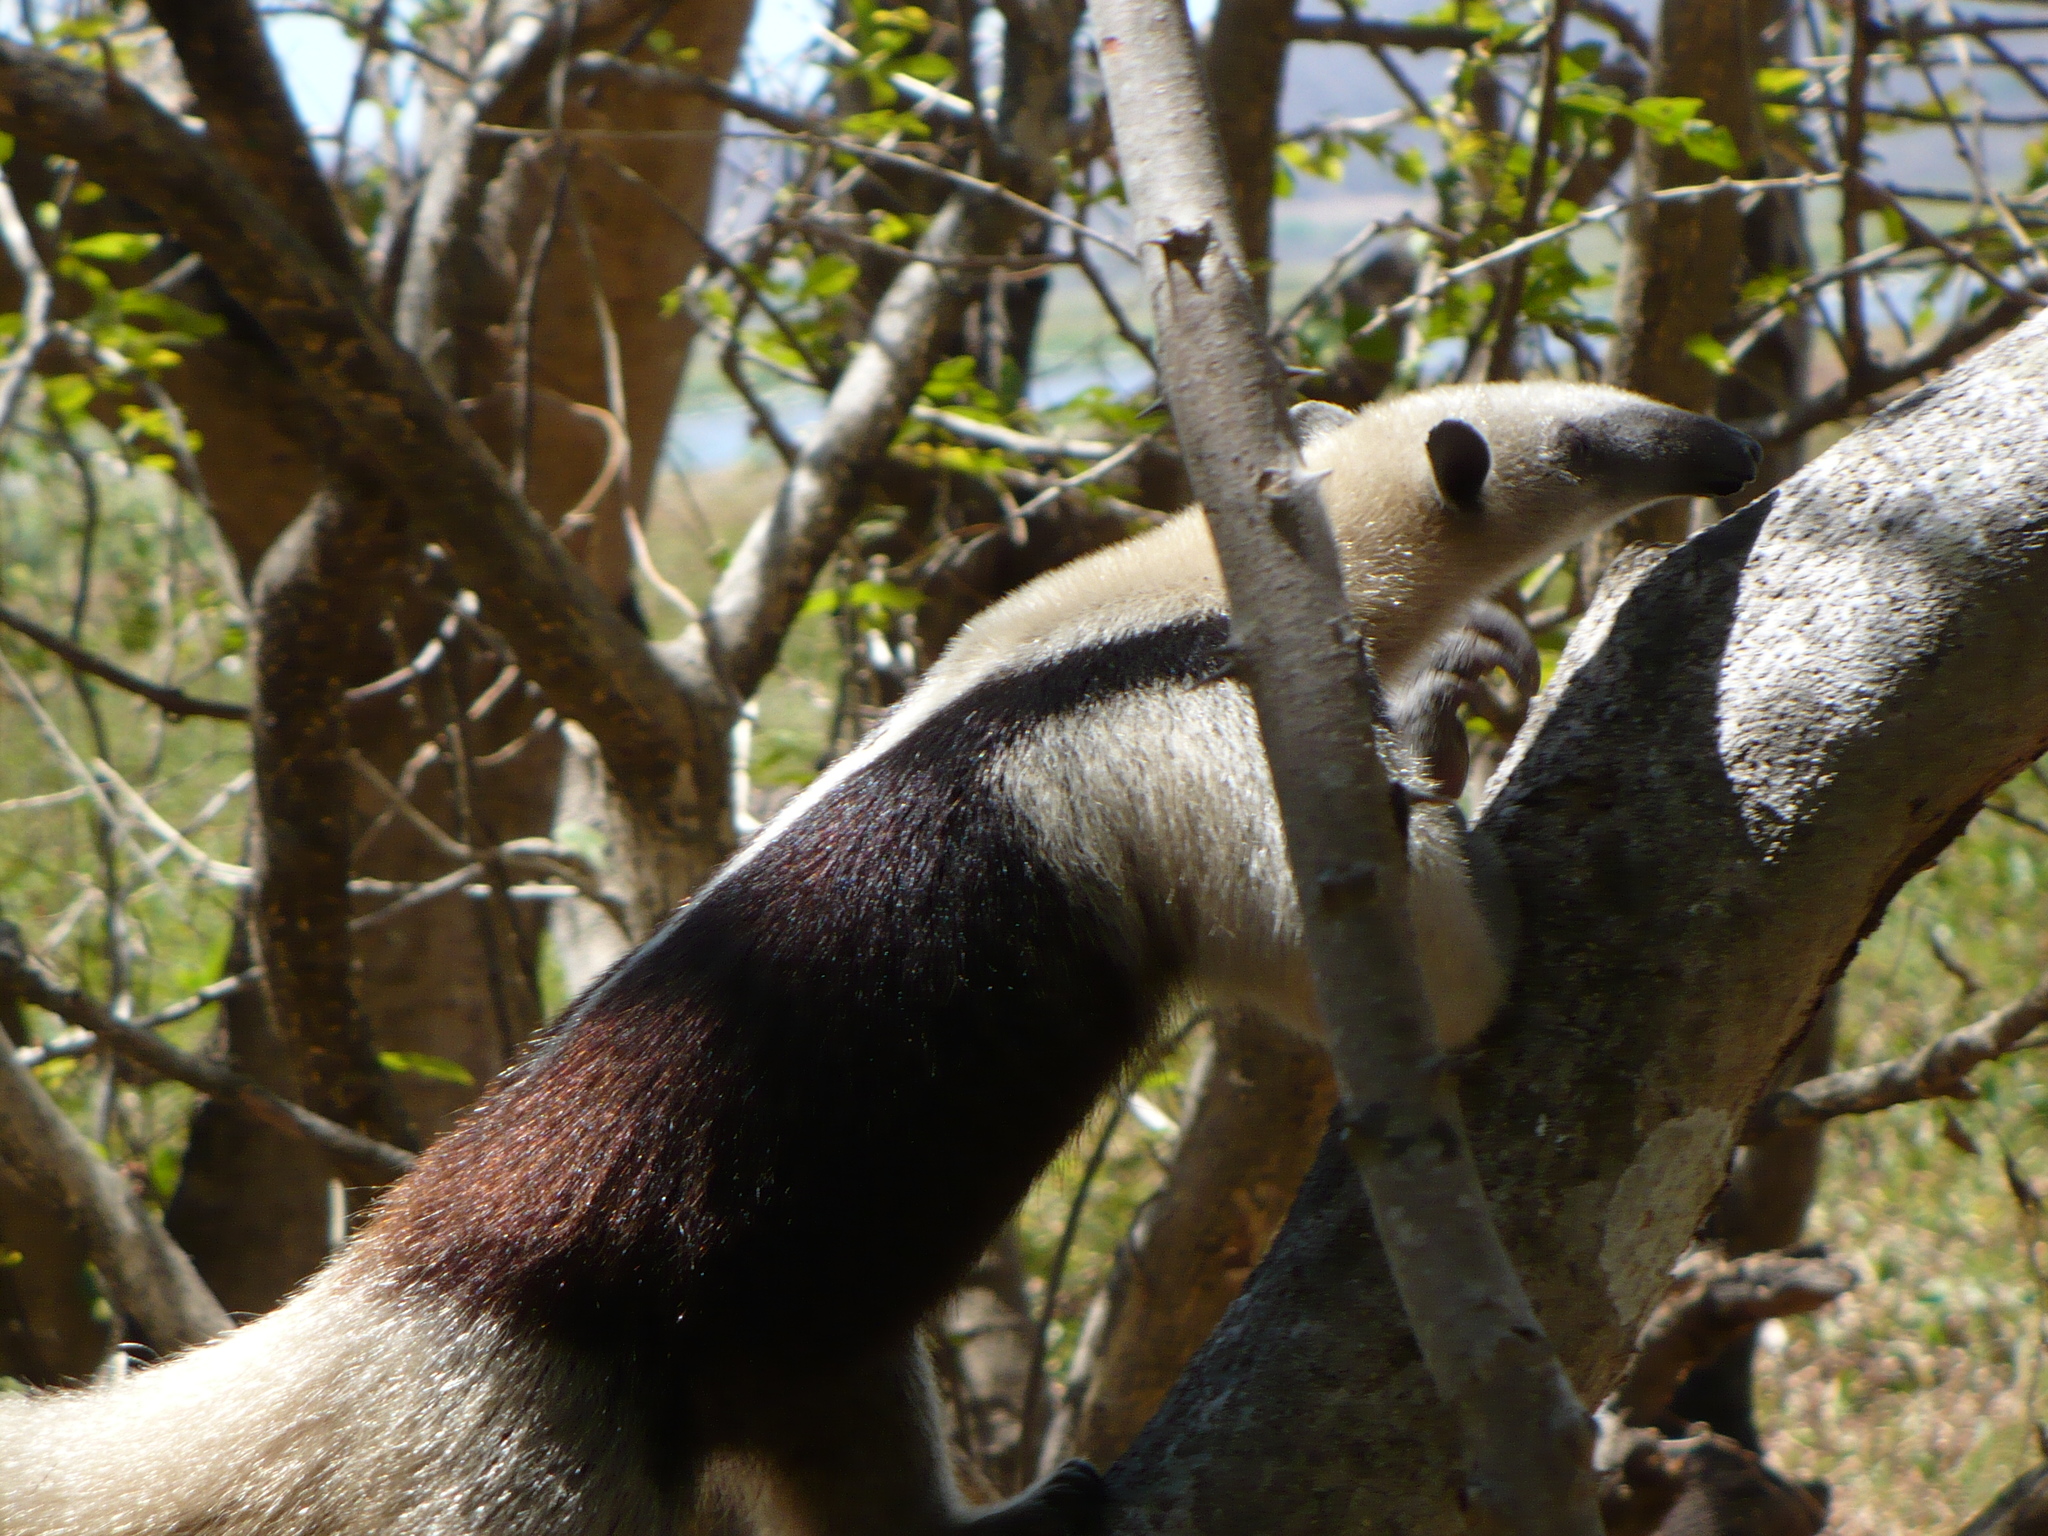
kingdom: Animalia
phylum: Chordata
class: Mammalia
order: Pilosa
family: Myrmecophagidae
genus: Tamandua
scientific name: Tamandua mexicana
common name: Northern tamandua
